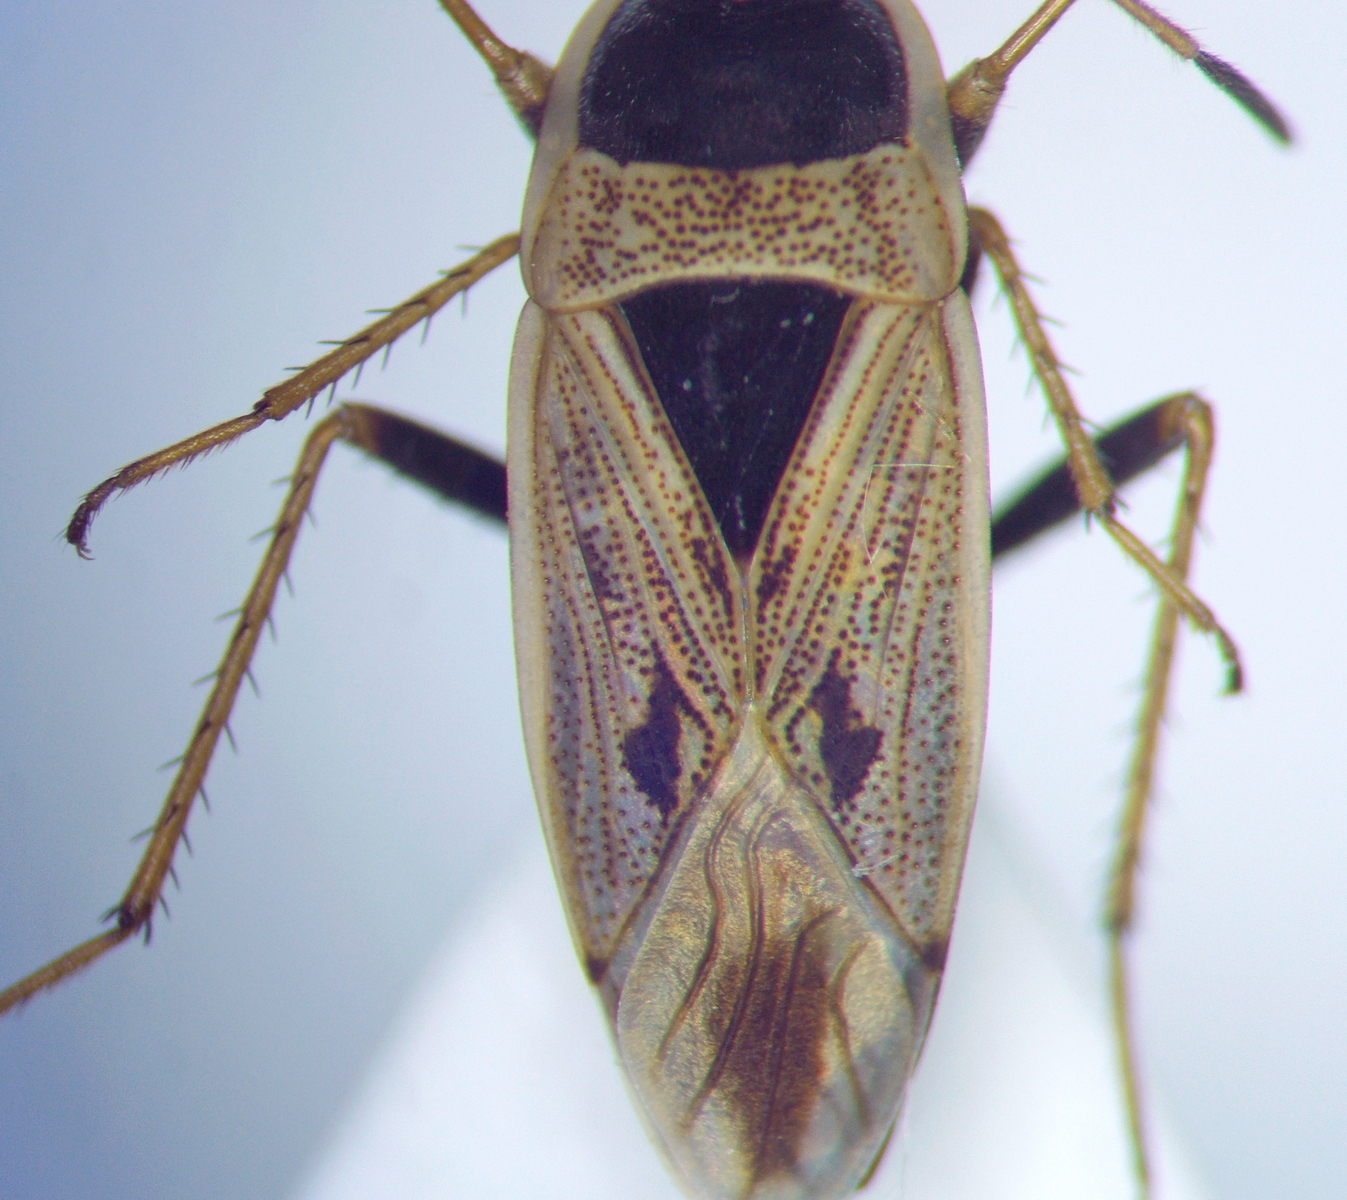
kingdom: Animalia
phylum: Arthropoda
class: Insecta
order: Hemiptera
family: Rhyparochromidae
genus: Xanthochilus
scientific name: Xanthochilus omissus
